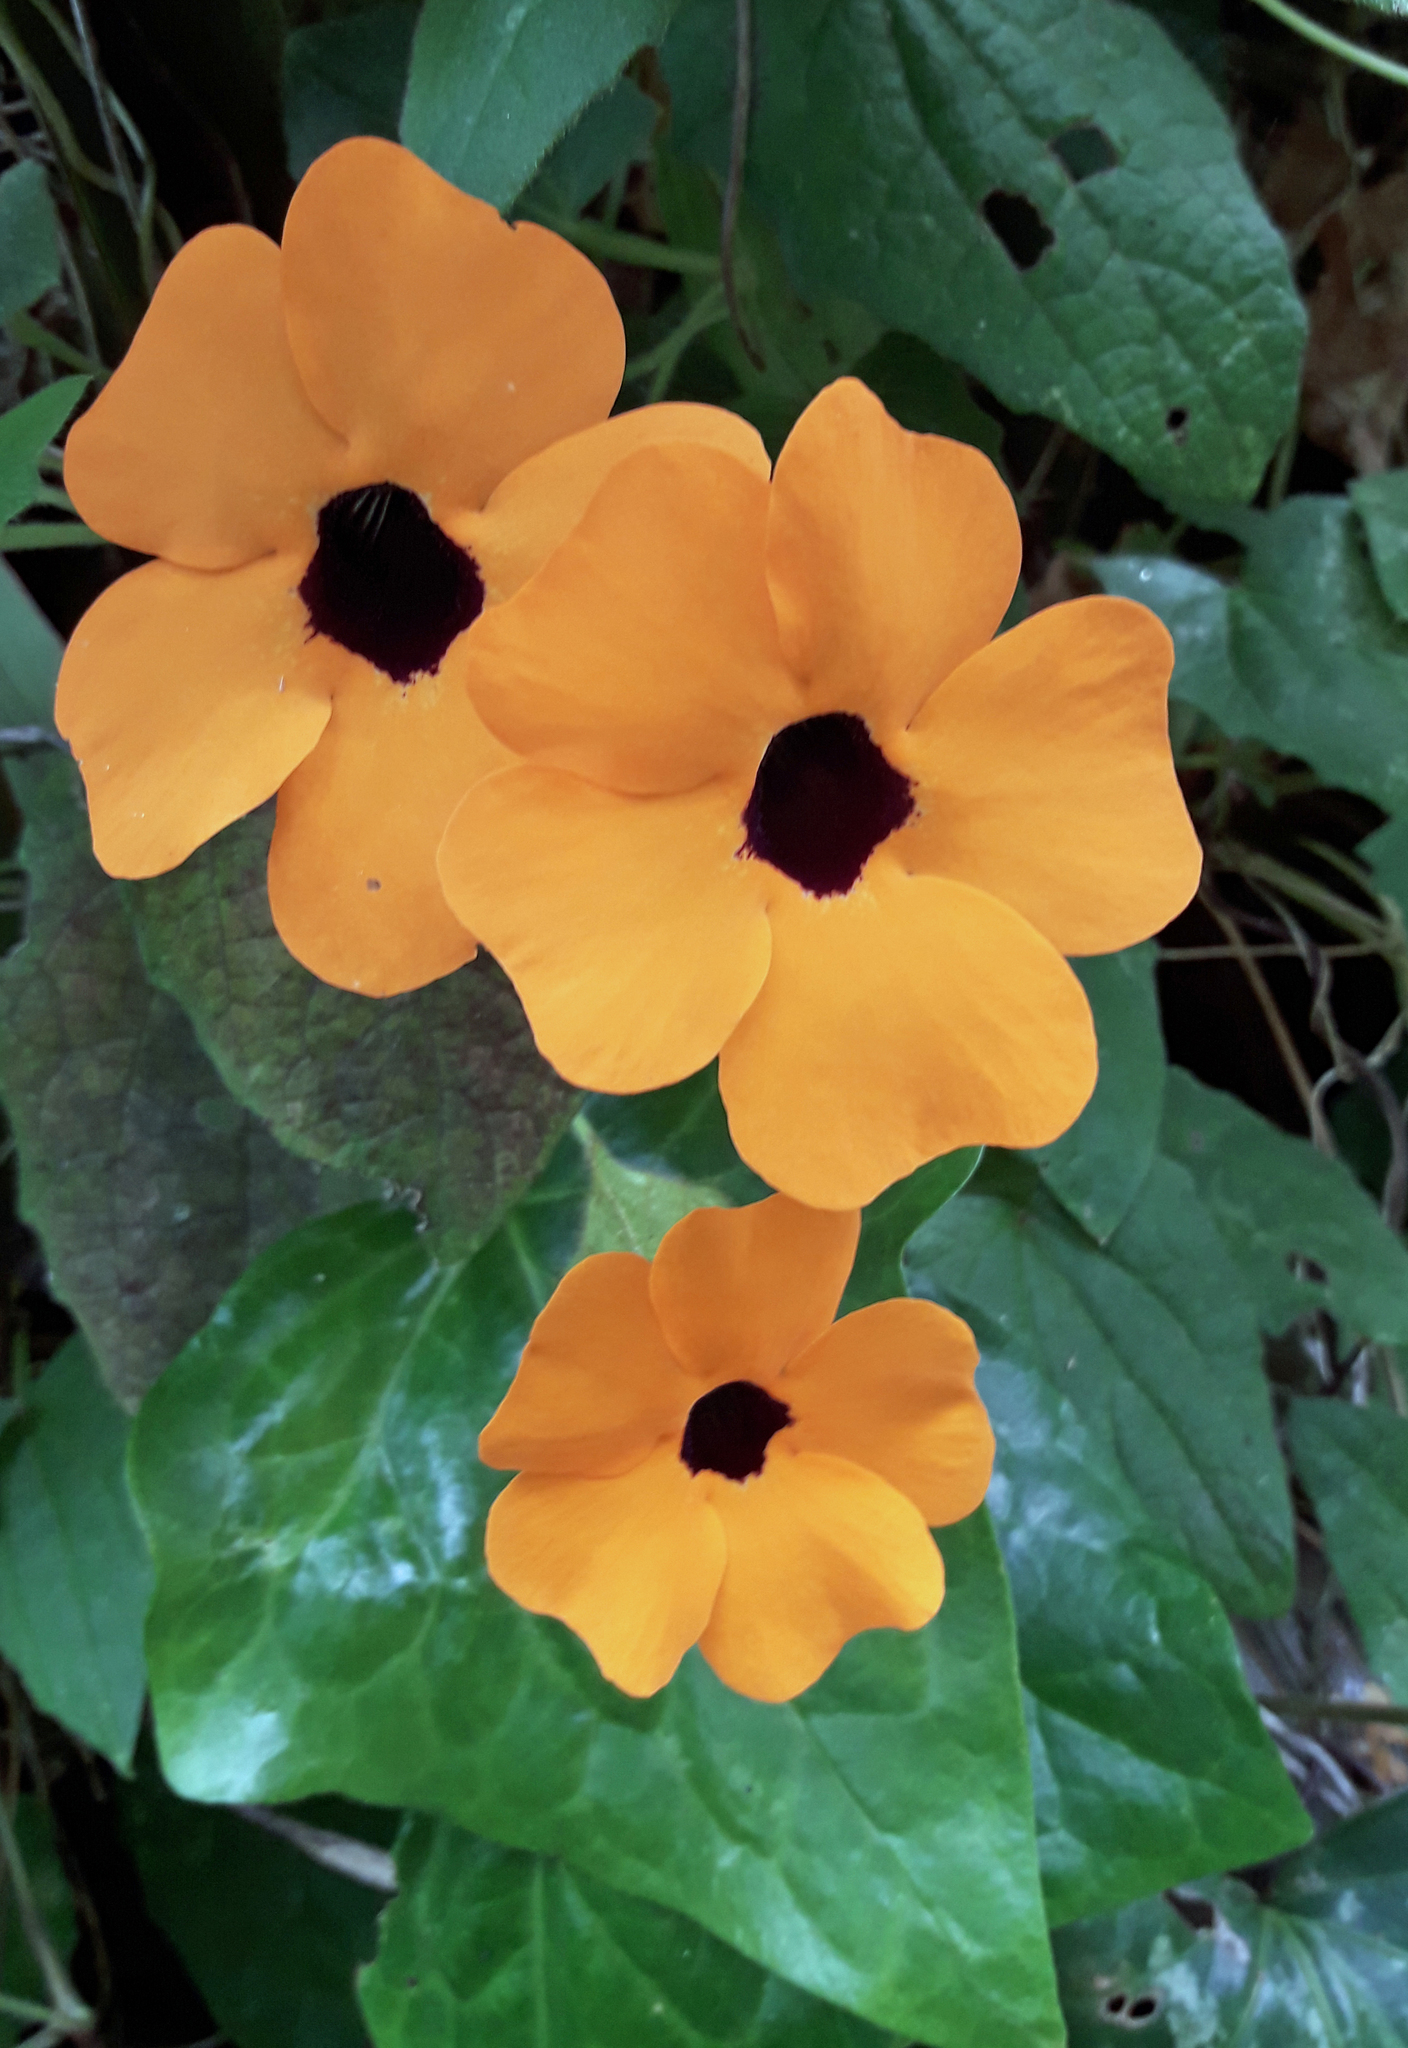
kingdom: Plantae
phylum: Tracheophyta
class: Magnoliopsida
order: Lamiales
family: Acanthaceae
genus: Thunbergia
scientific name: Thunbergia alata
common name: Blackeyed susan vine
